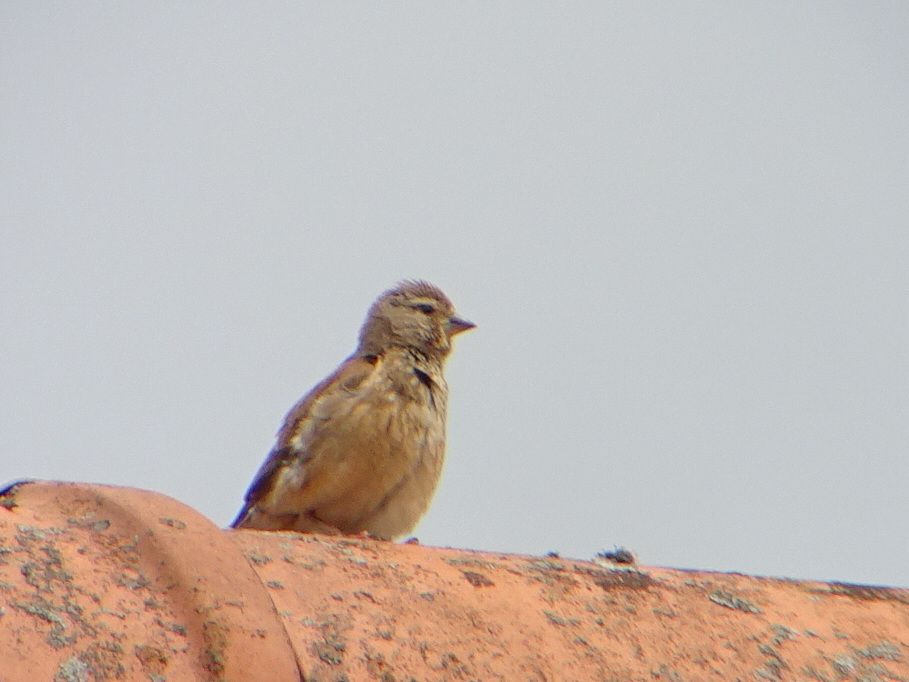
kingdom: Animalia
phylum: Chordata
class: Aves
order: Passeriformes
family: Fringillidae
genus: Linaria
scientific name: Linaria cannabina
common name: Common linnet
